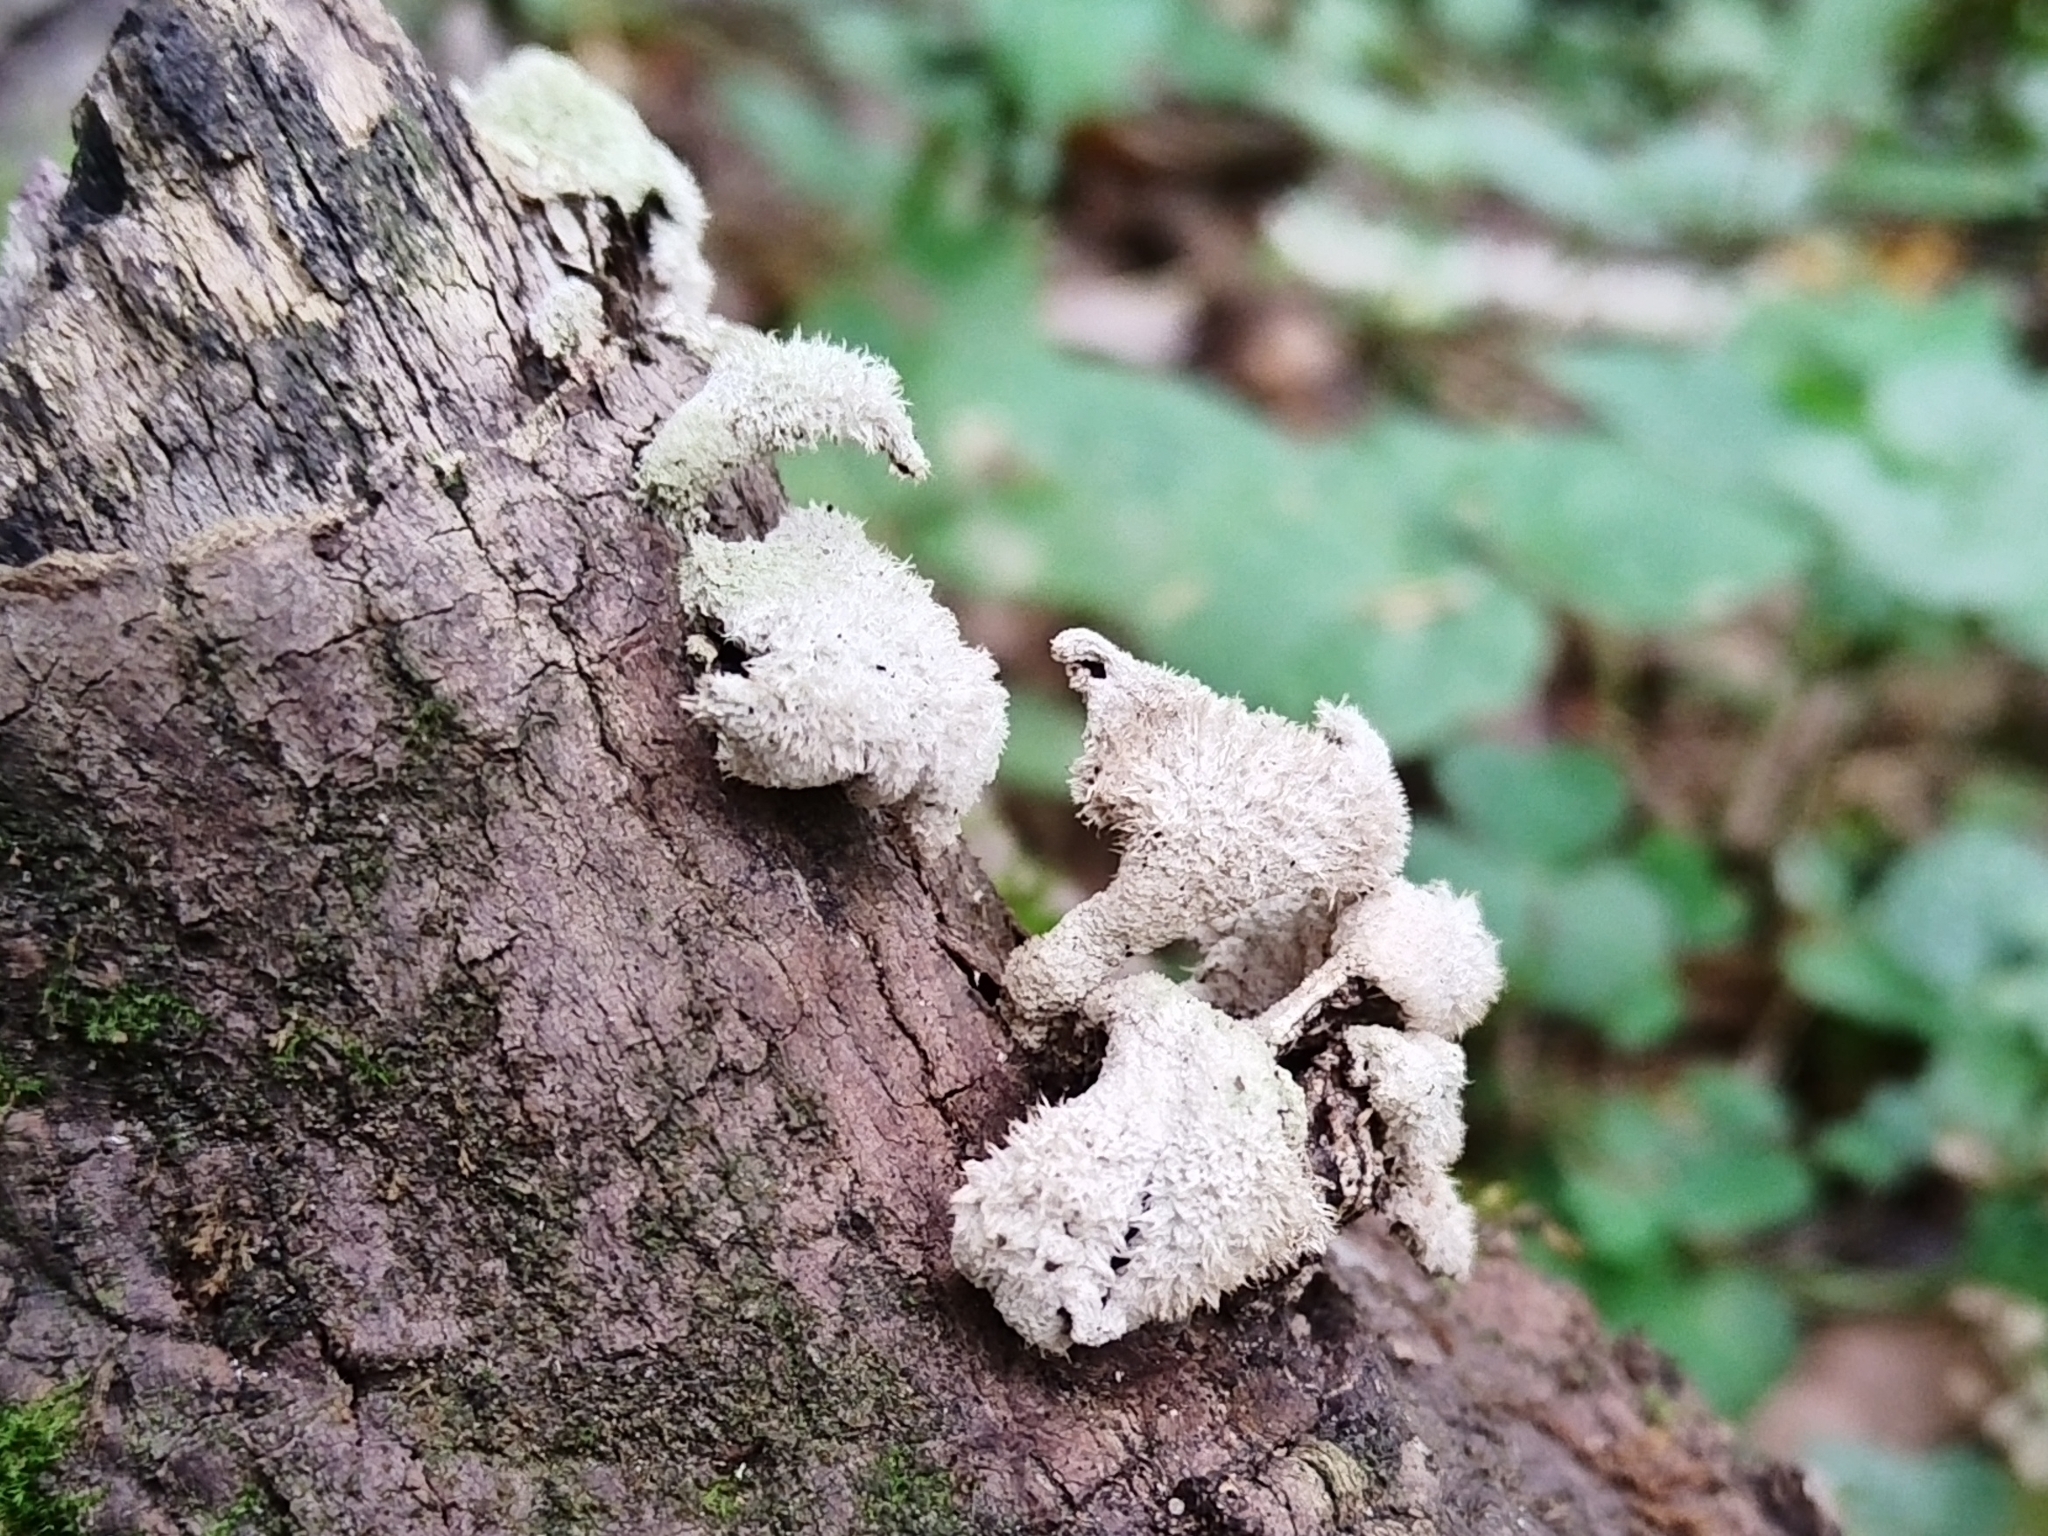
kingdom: Fungi
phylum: Basidiomycota
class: Agaricomycetes
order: Agaricales
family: Schizophyllaceae
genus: Schizophyllum
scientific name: Schizophyllum commune
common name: Common porecrust
